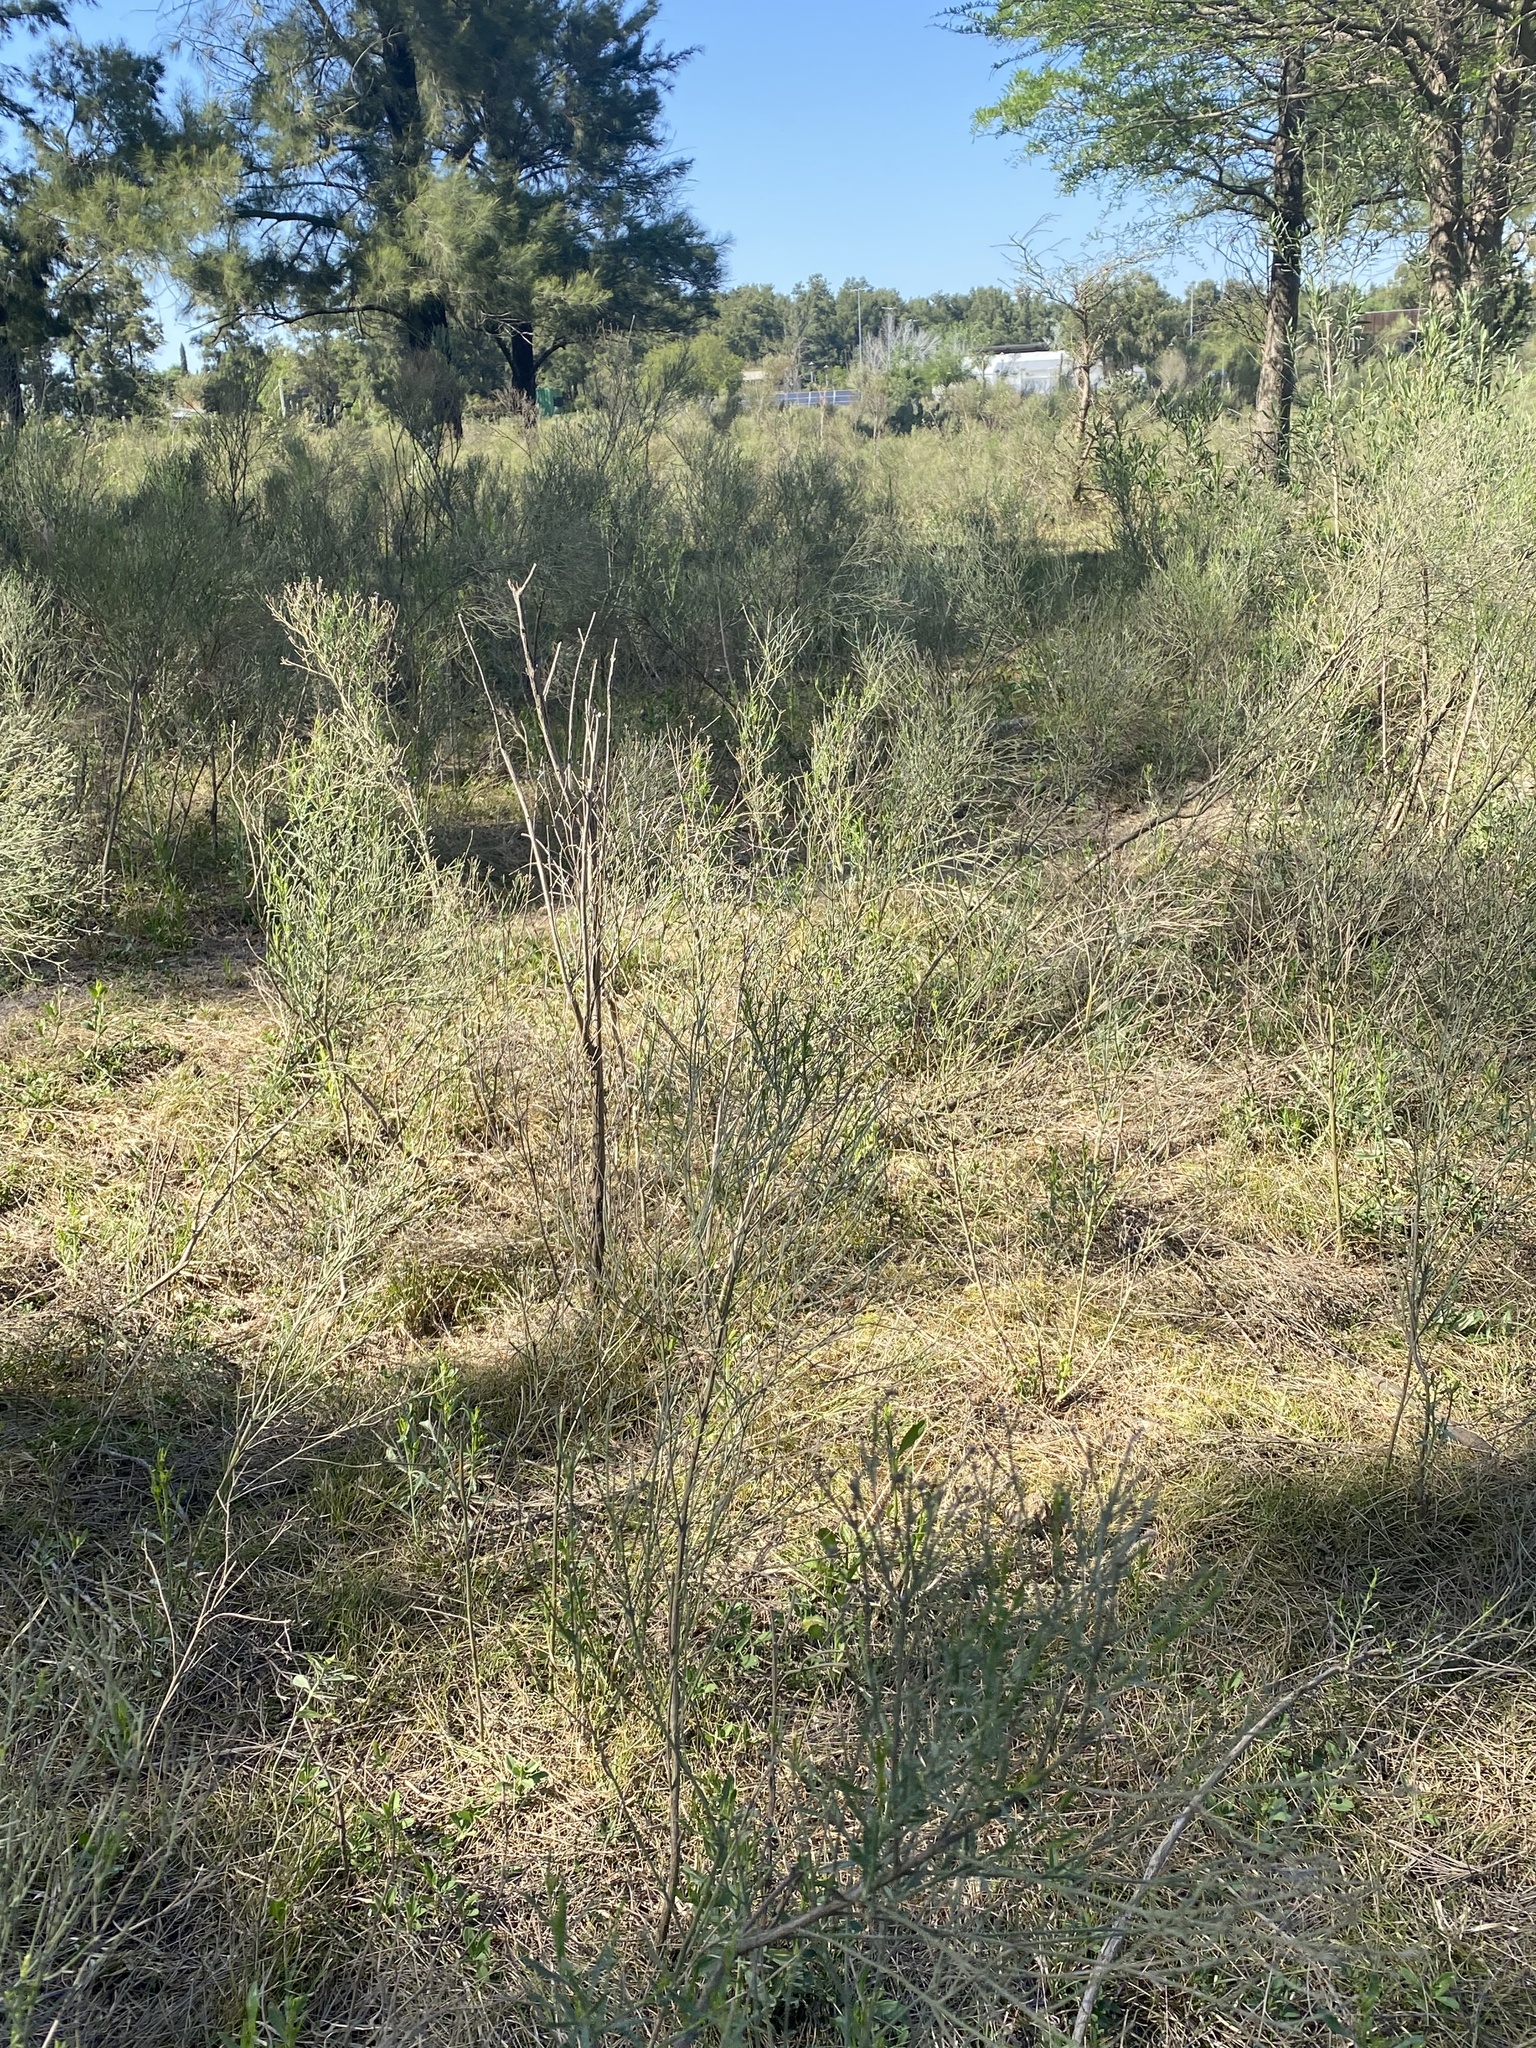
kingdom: Plantae
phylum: Tracheophyta
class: Magnoliopsida
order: Asterales
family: Asteraceae
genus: Baccharis
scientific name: Baccharis notosergila
